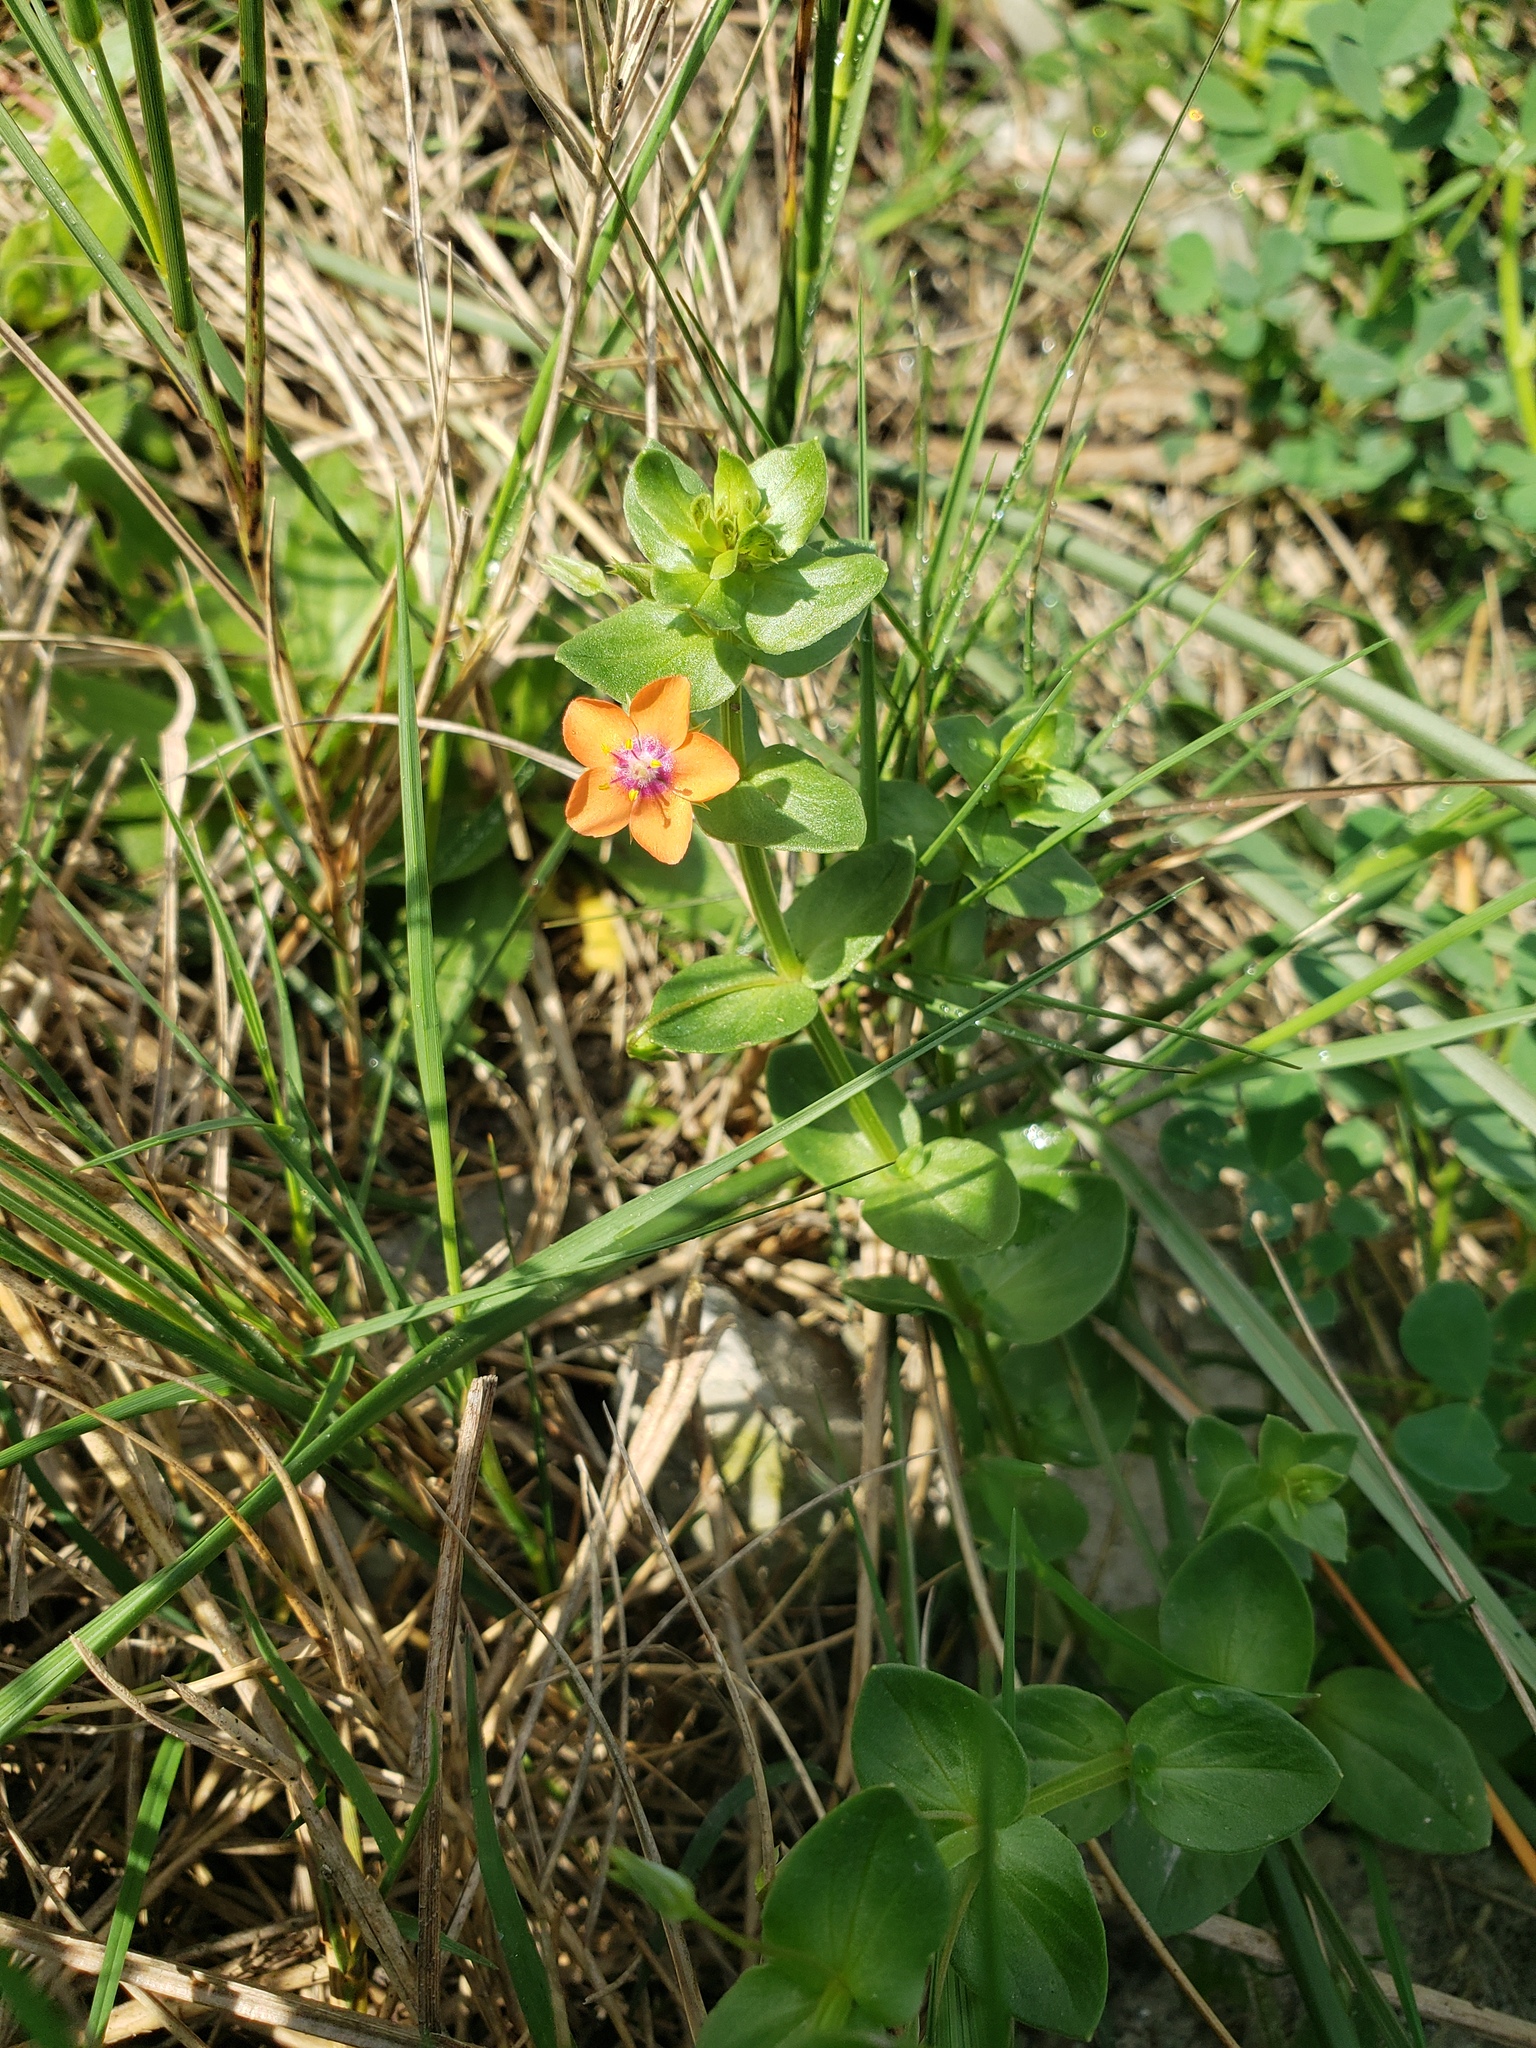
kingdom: Plantae
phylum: Tracheophyta
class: Magnoliopsida
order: Ericales
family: Primulaceae
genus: Lysimachia
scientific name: Lysimachia arvensis
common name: Scarlet pimpernel
